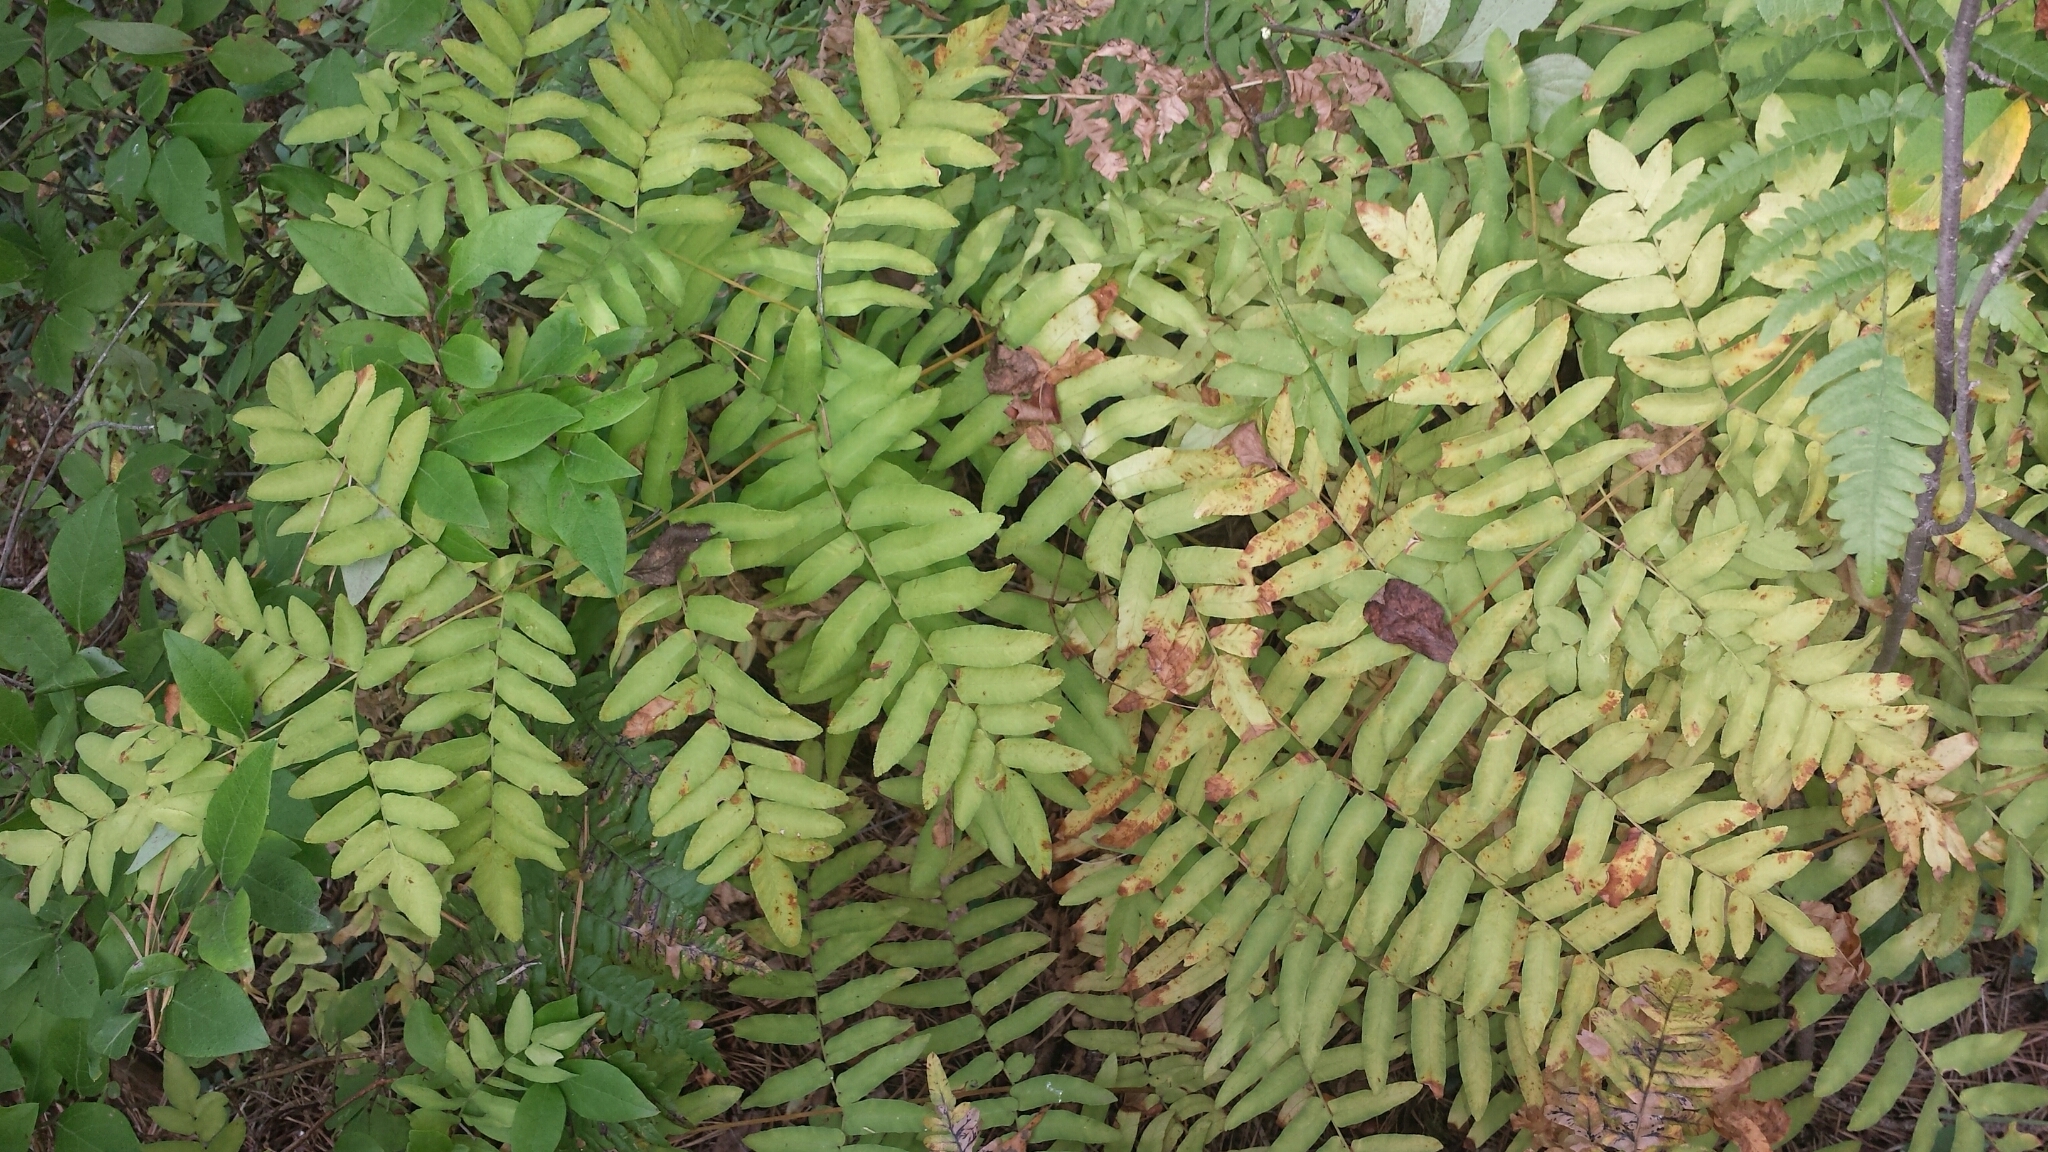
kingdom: Plantae
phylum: Tracheophyta
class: Polypodiopsida
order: Osmundales
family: Osmundaceae
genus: Osmunda
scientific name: Osmunda spectabilis
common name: American royal fern
